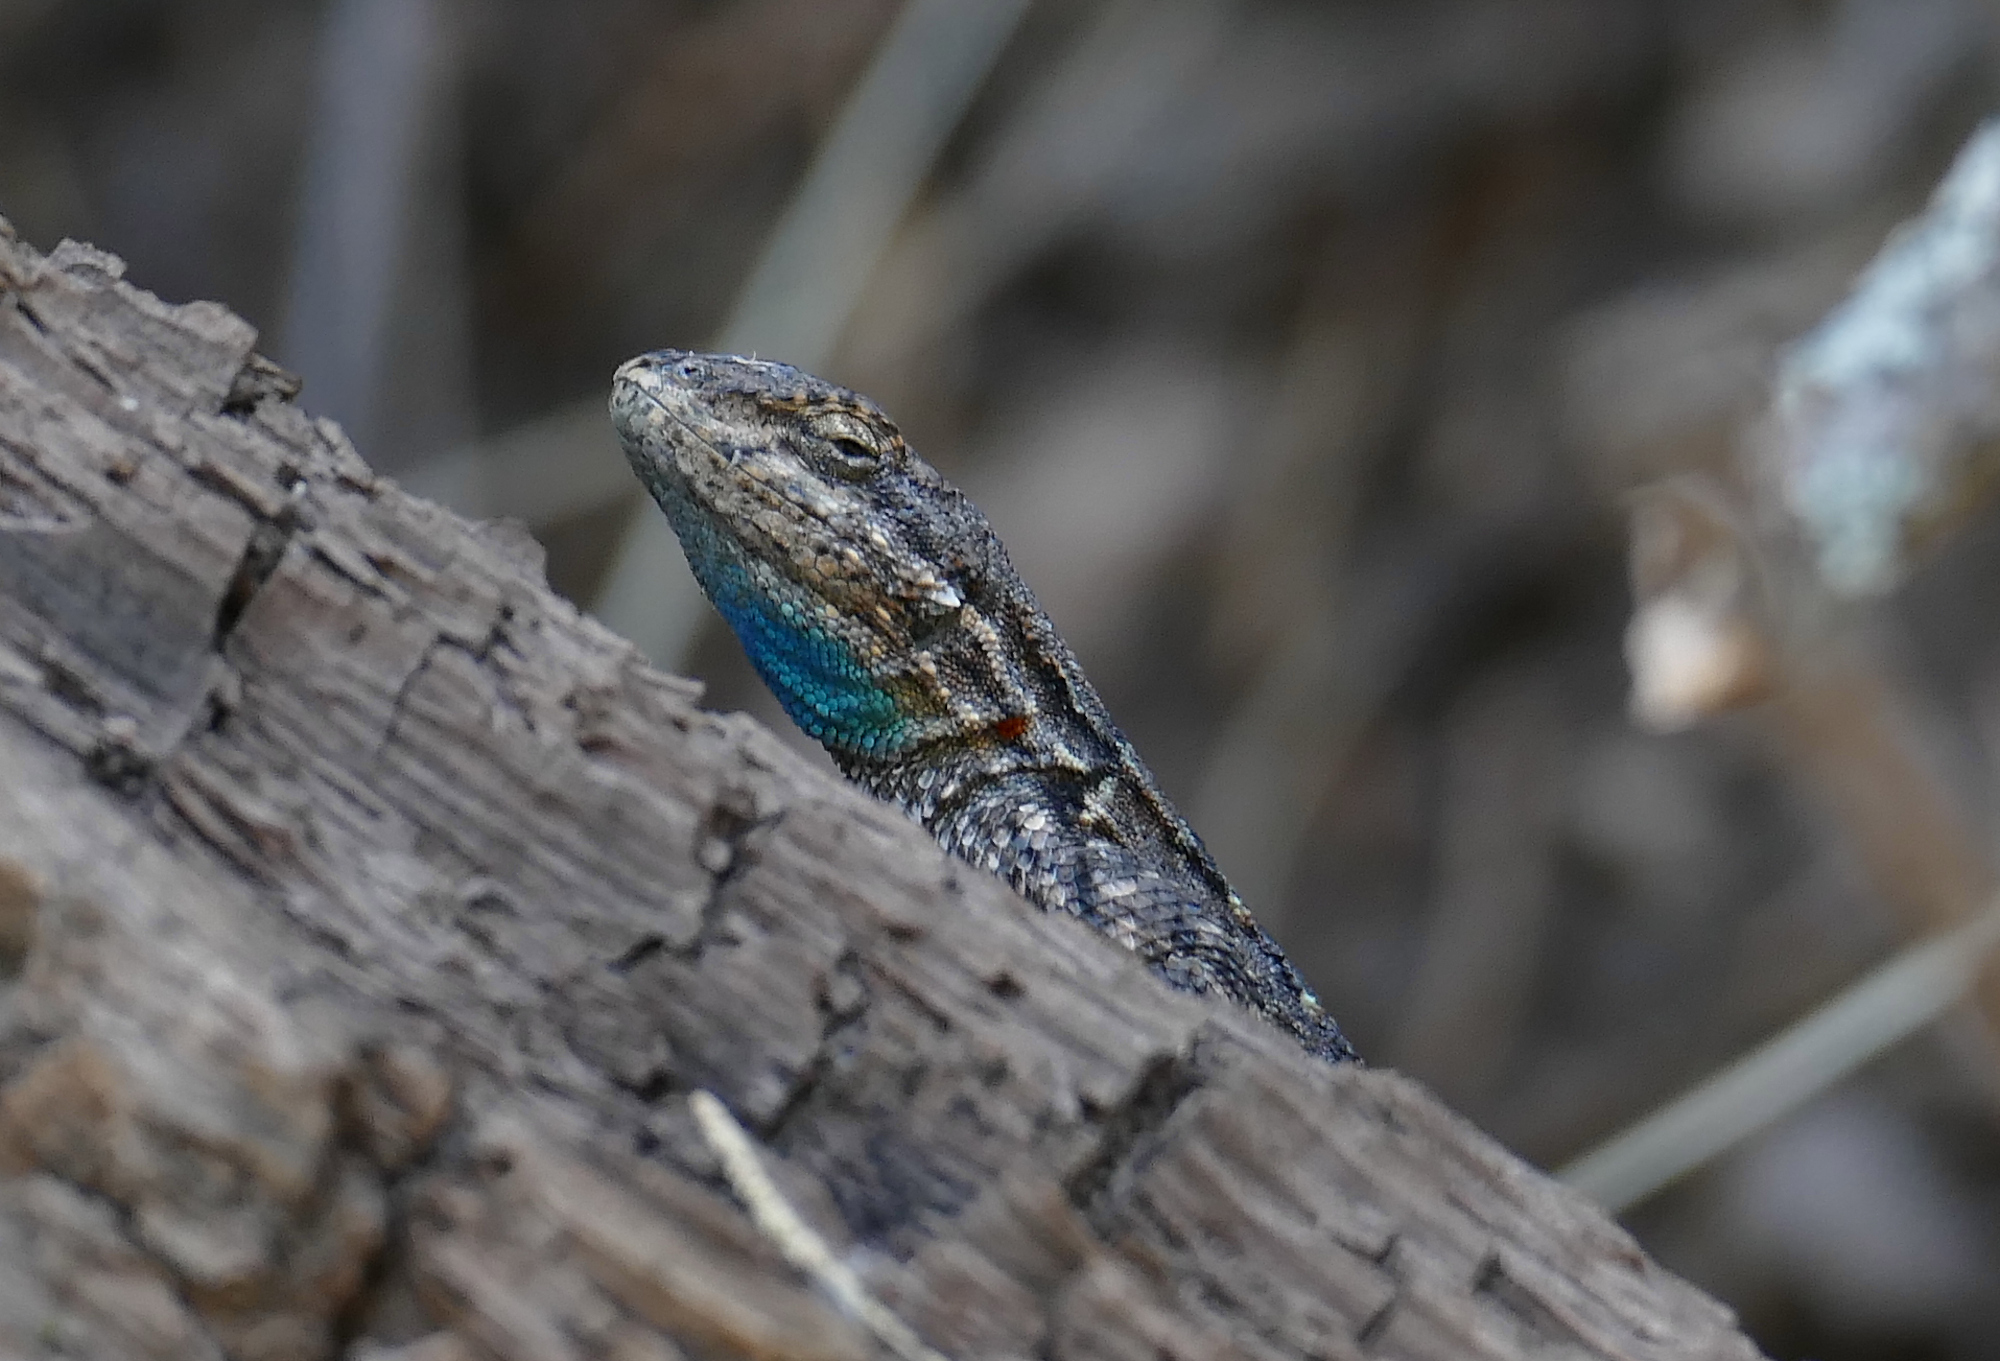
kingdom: Animalia
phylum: Chordata
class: Squamata
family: Phrynosomatidae
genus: Urosaurus
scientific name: Urosaurus ornatus
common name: Ornate tree lizard
